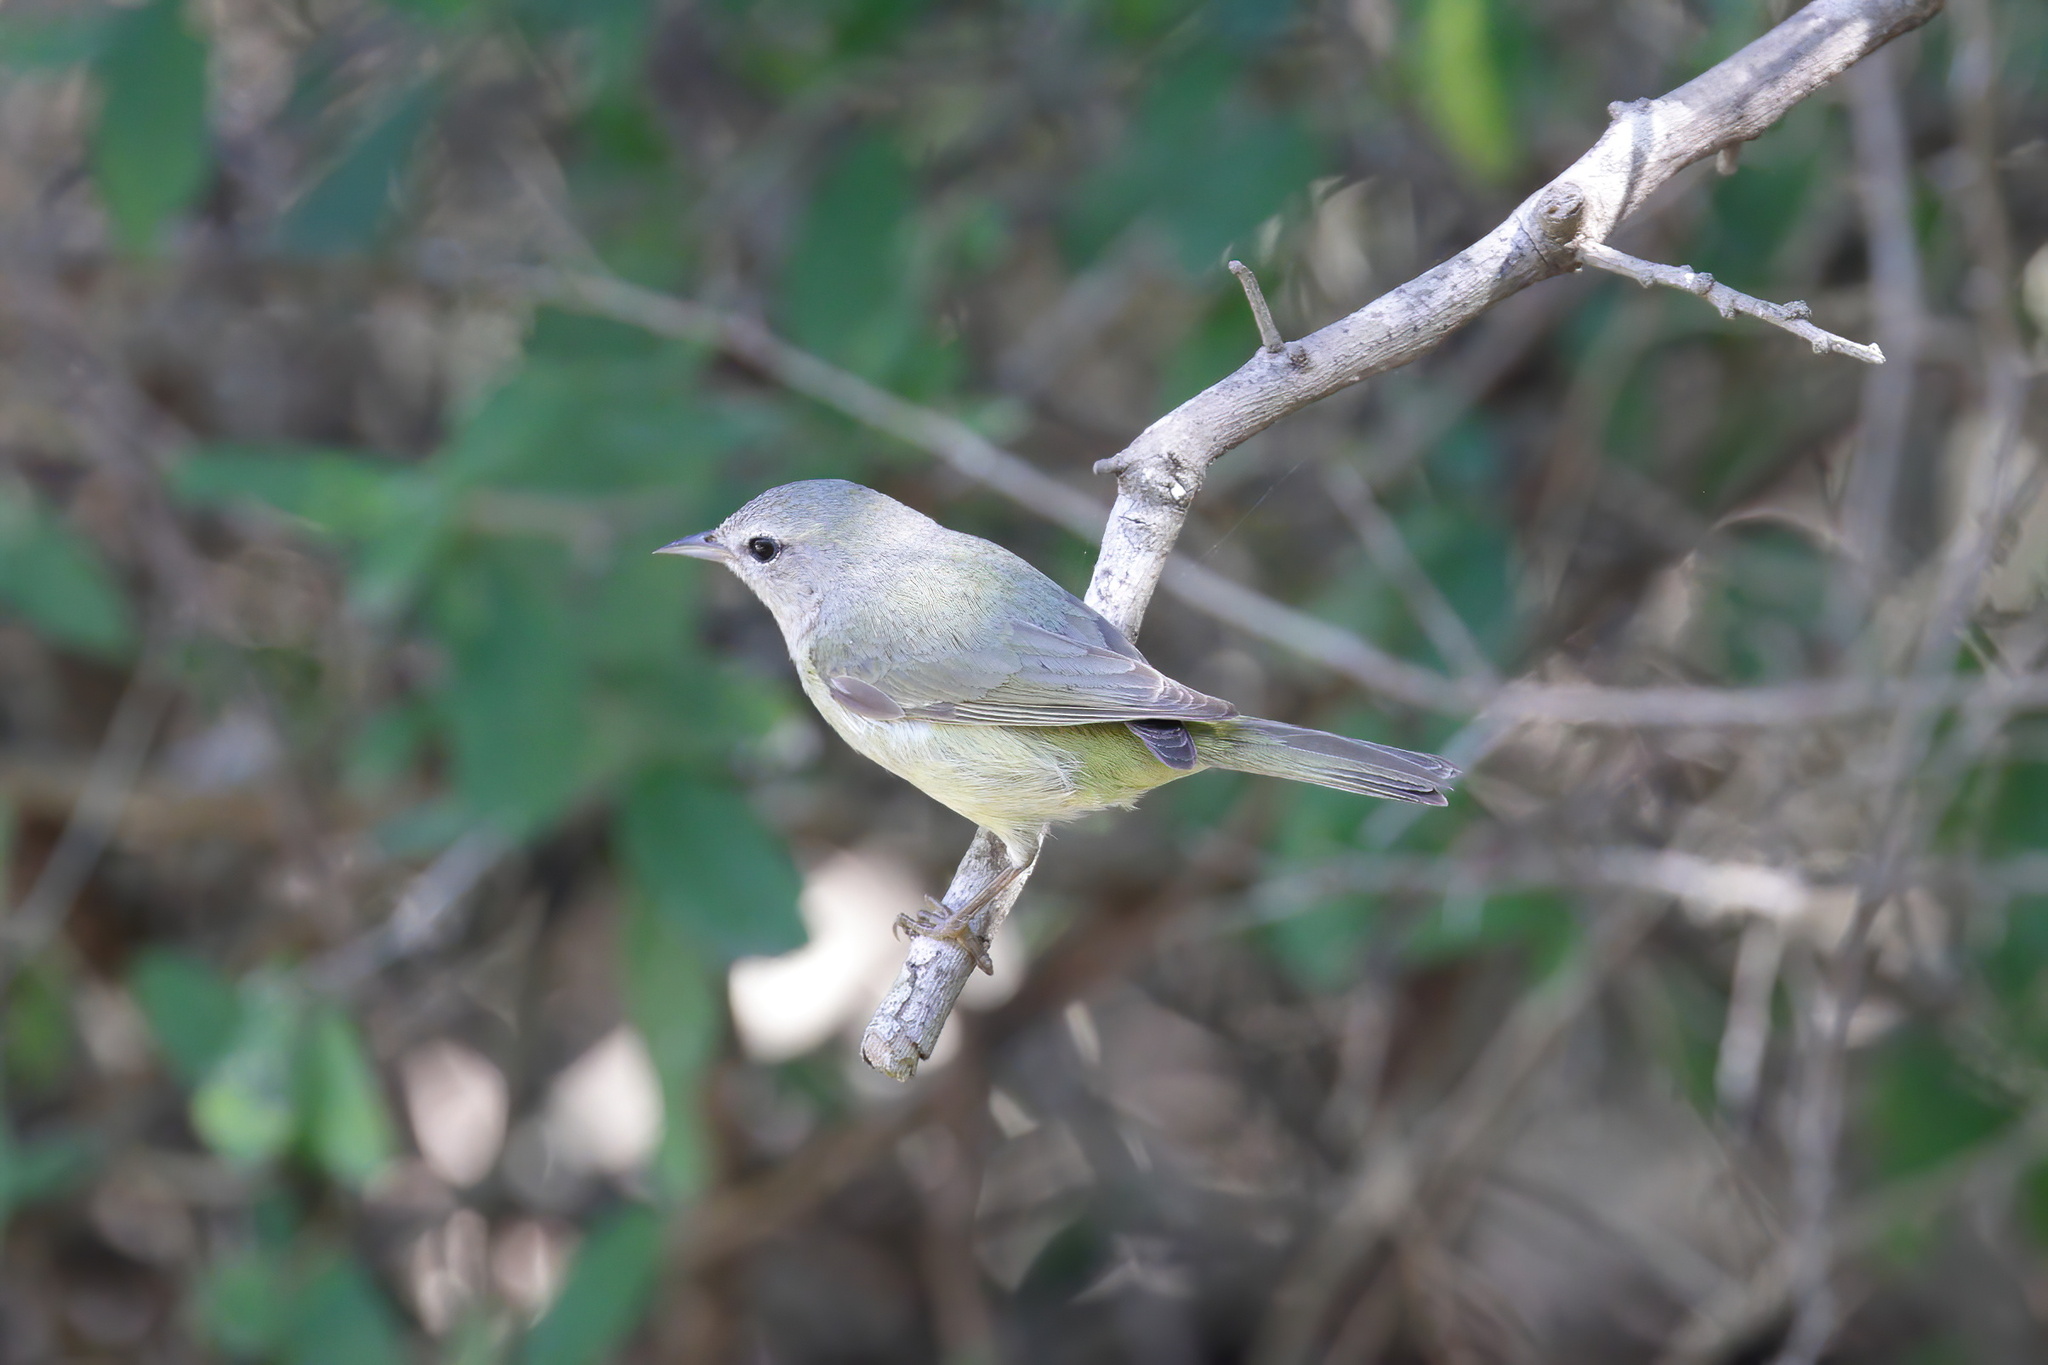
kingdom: Animalia
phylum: Chordata
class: Aves
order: Passeriformes
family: Parulidae
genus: Leiothlypis
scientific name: Leiothlypis celata
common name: Orange-crowned warbler
